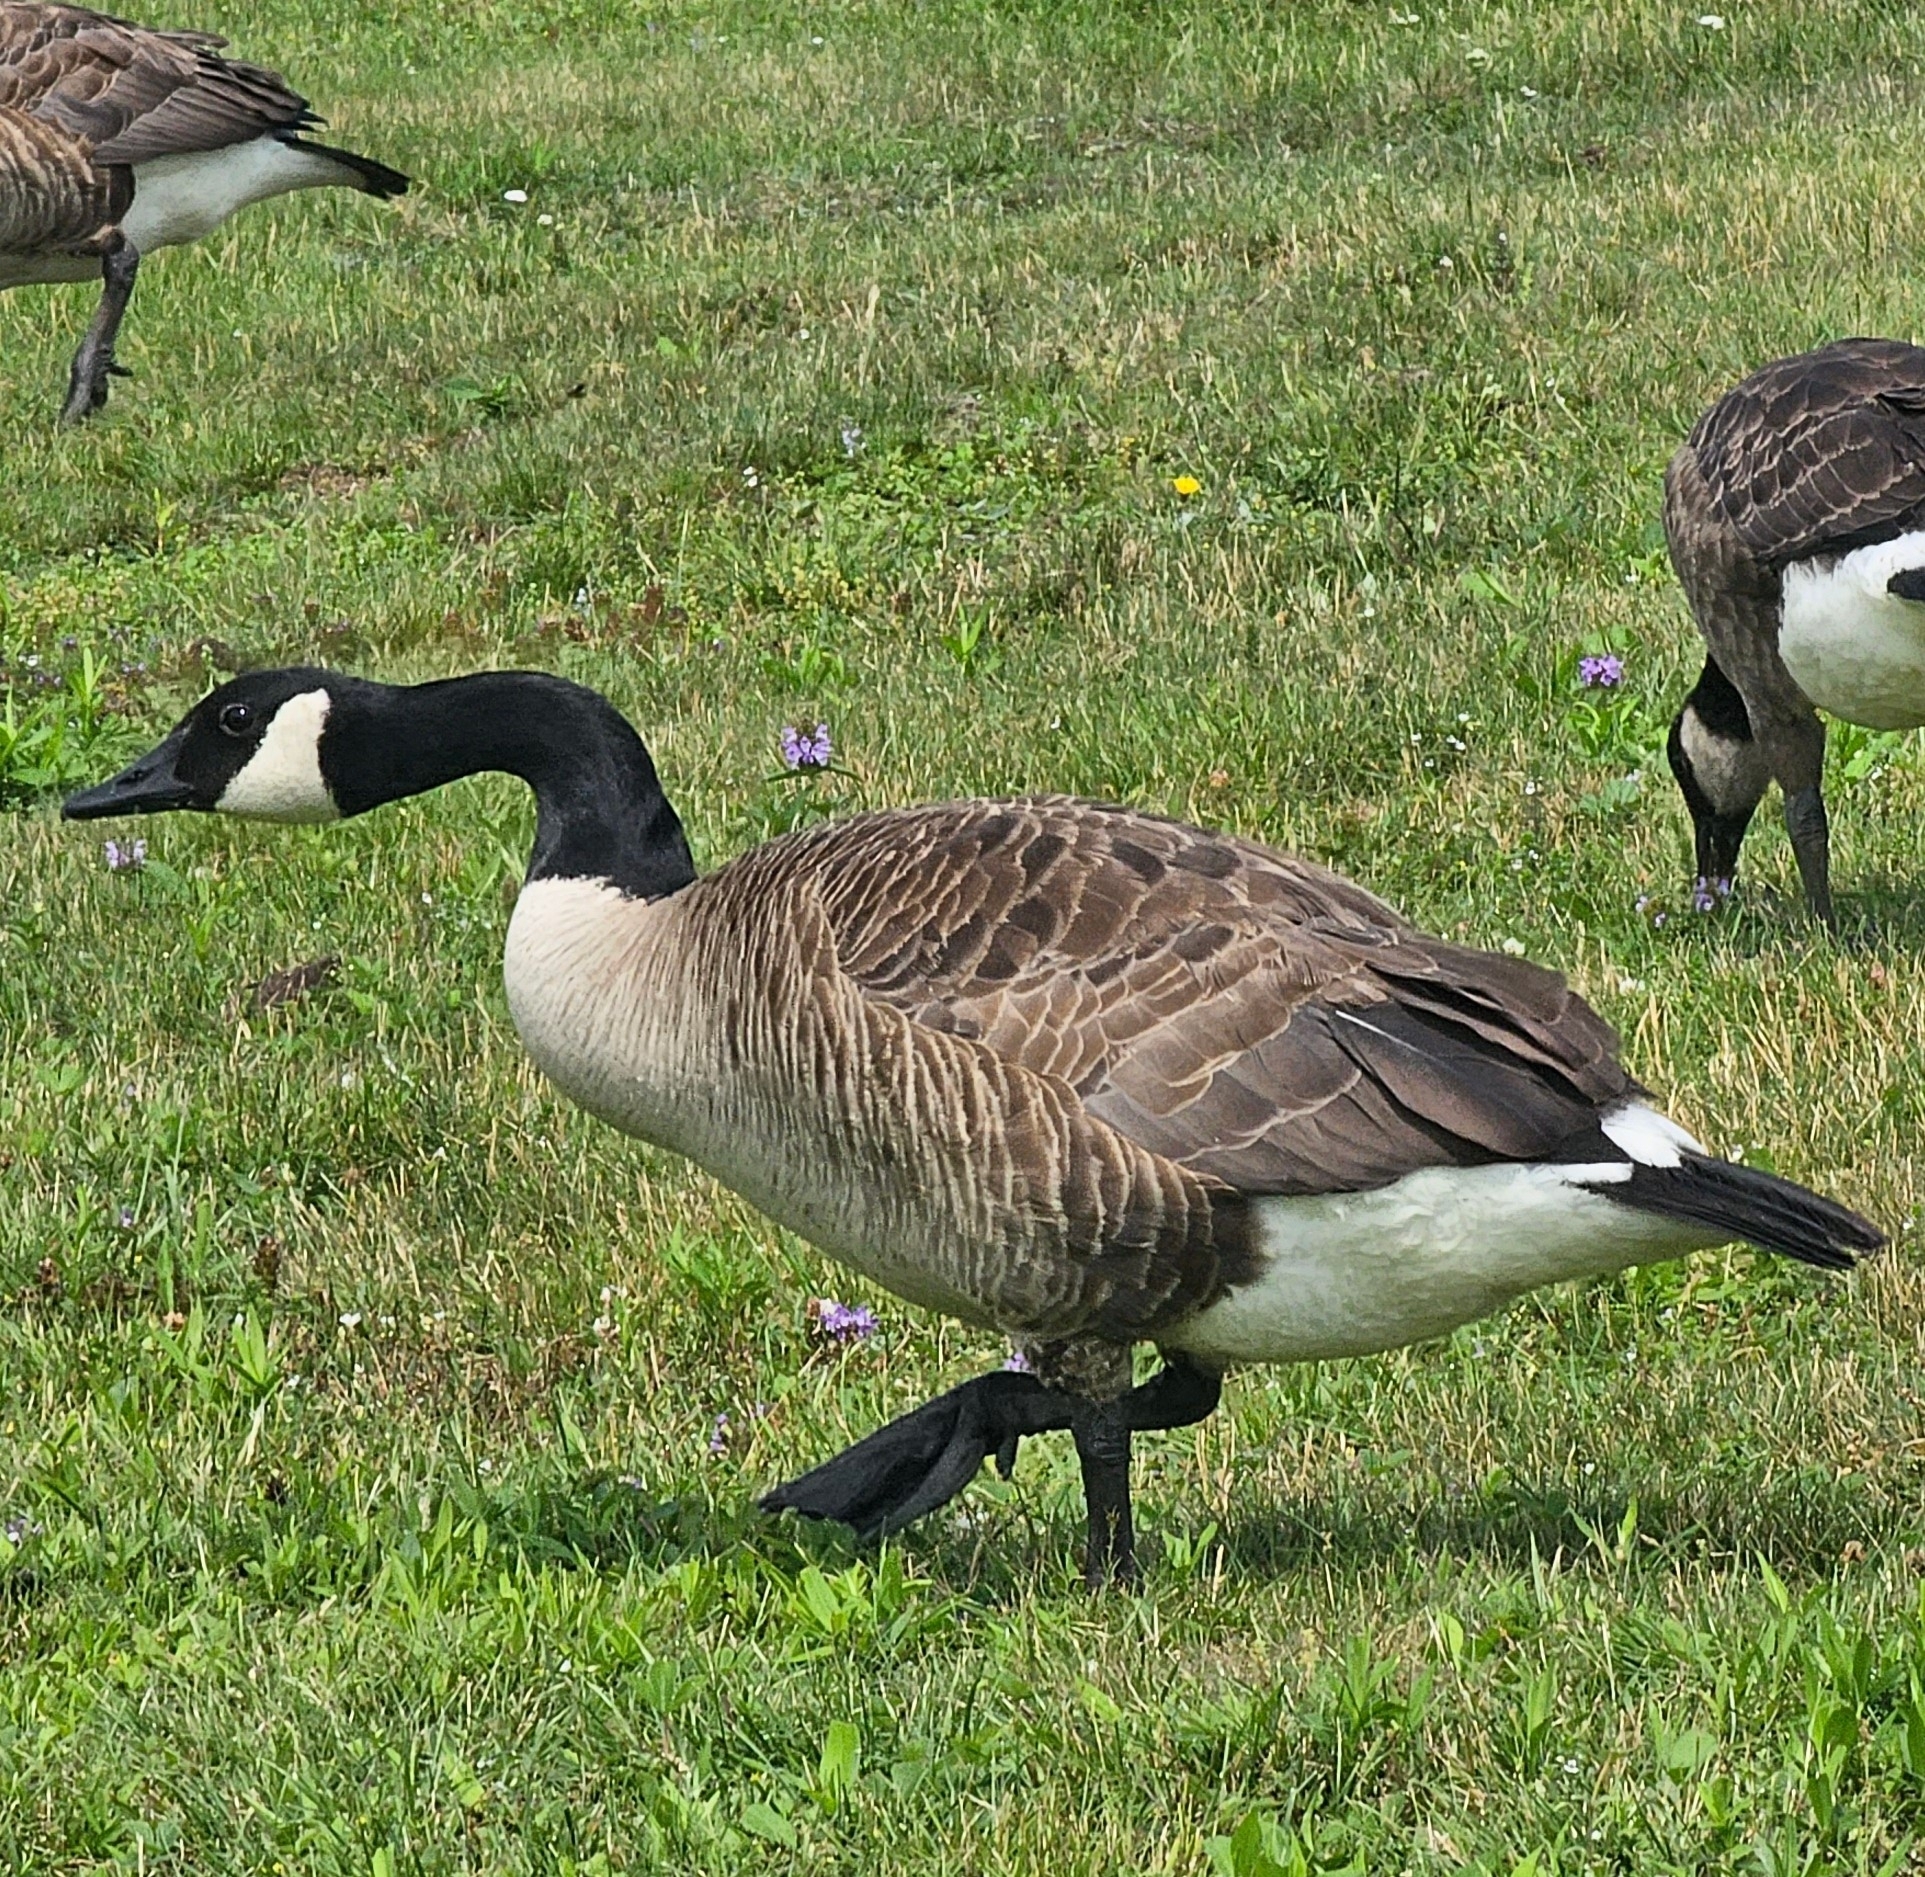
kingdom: Animalia
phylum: Chordata
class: Aves
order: Anseriformes
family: Anatidae
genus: Branta
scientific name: Branta canadensis
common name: Canada goose
